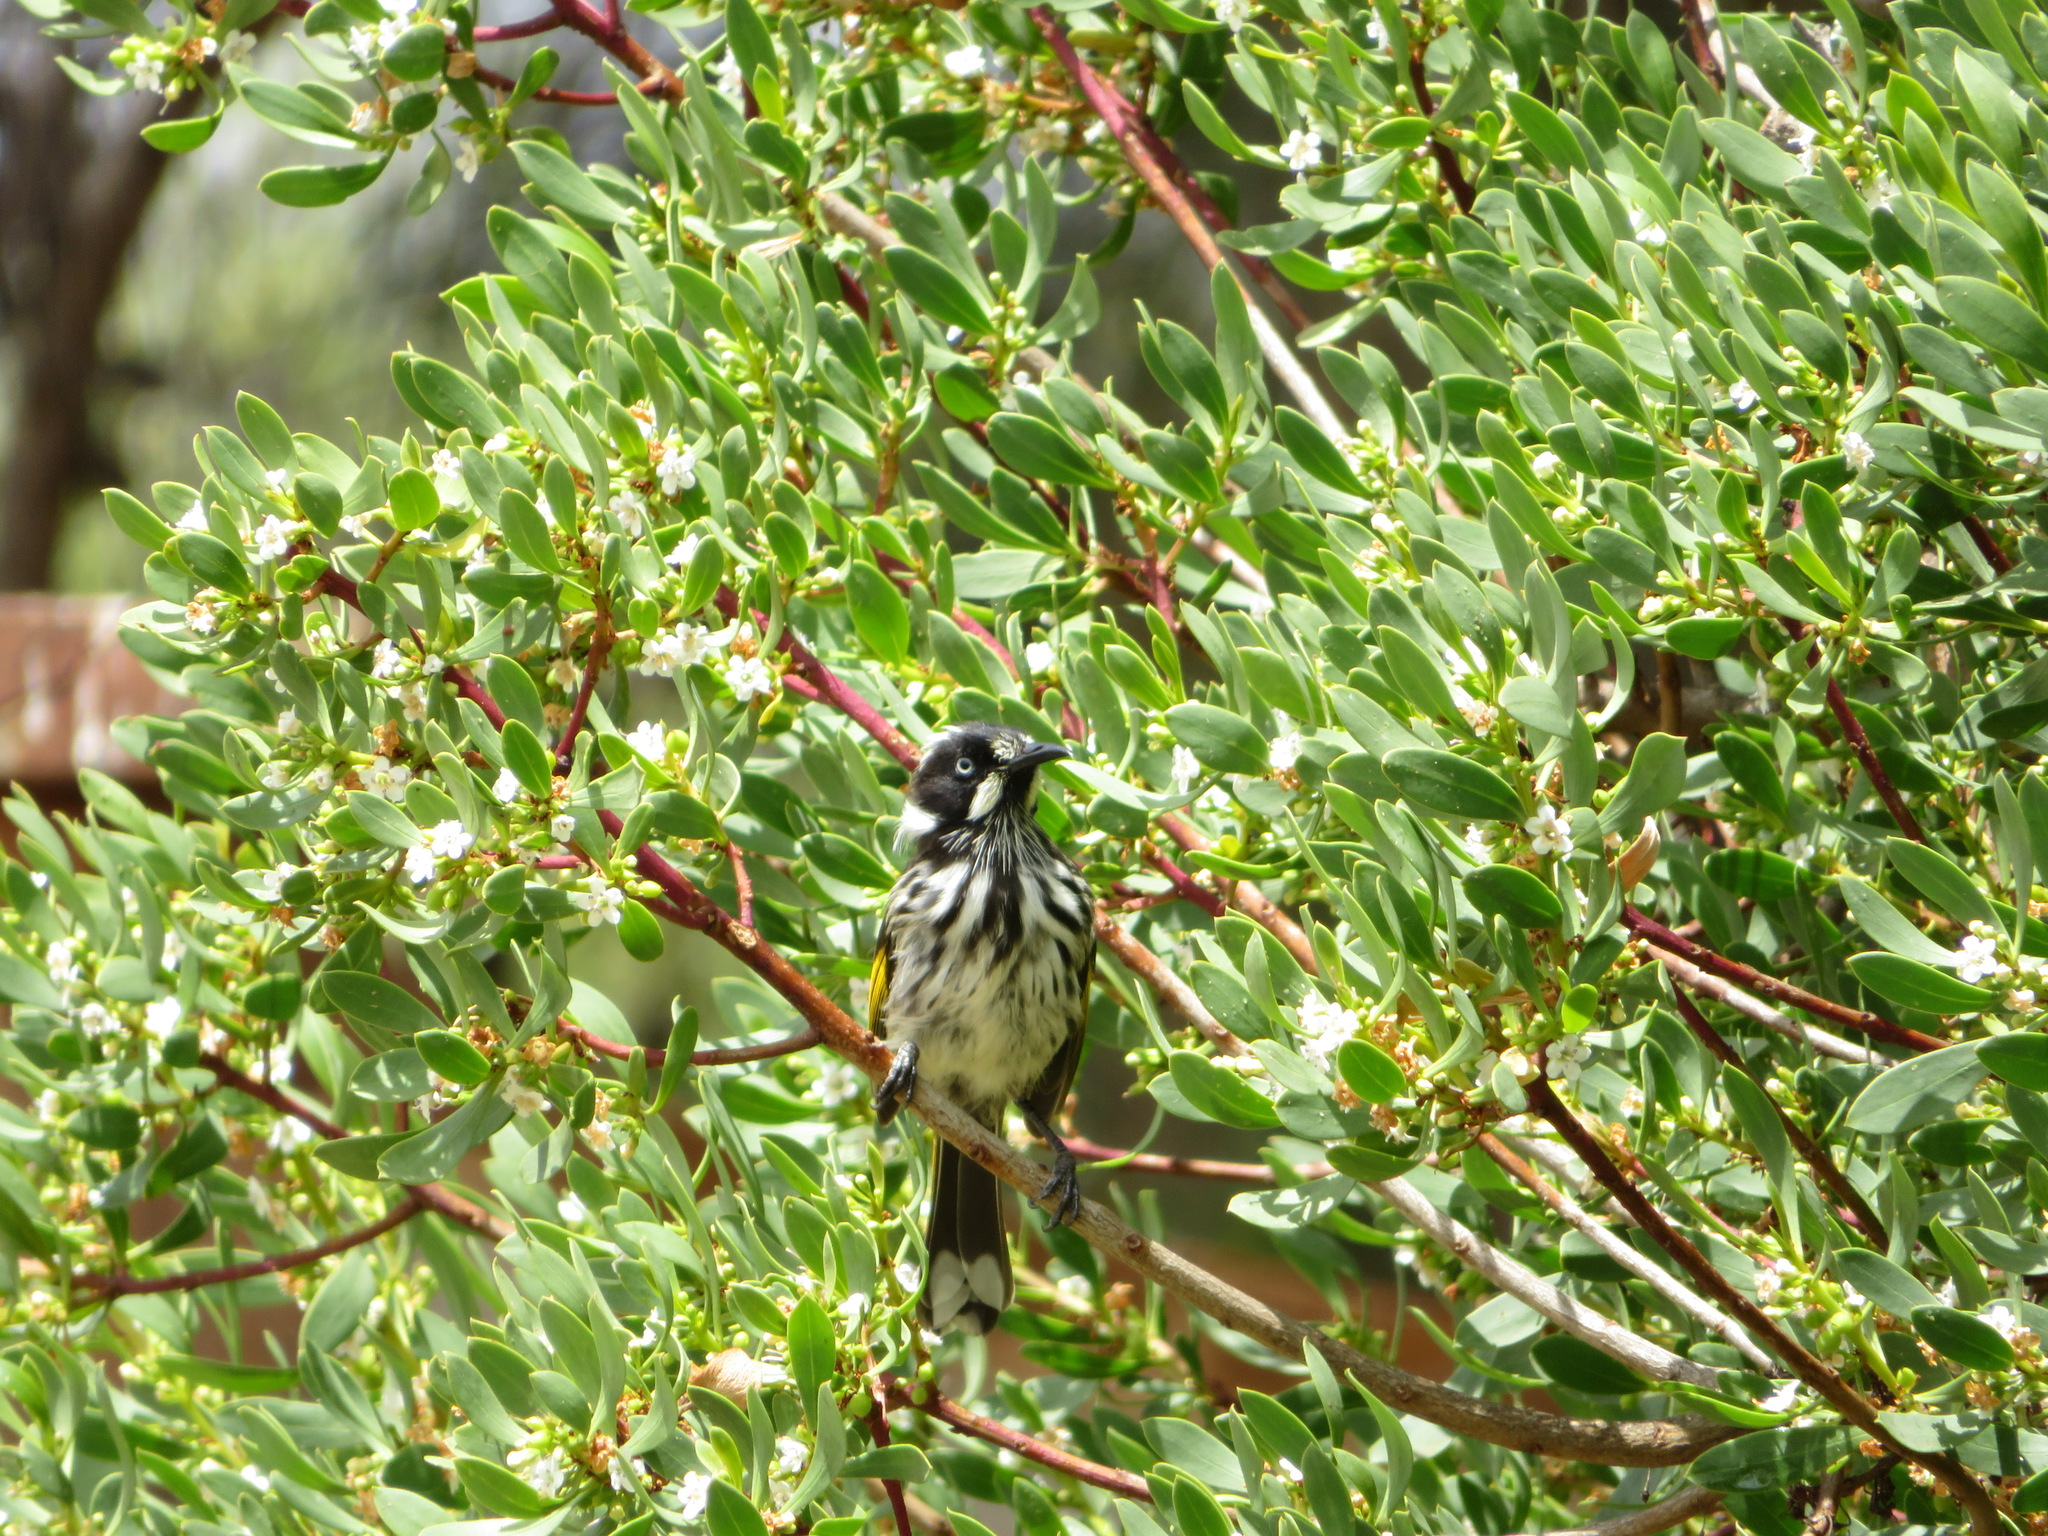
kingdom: Animalia
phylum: Chordata
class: Aves
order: Passeriformes
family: Meliphagidae
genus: Phylidonyris
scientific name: Phylidonyris novaehollandiae
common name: New holland honeyeater
